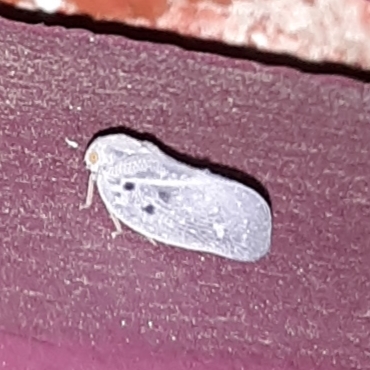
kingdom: Animalia
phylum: Arthropoda
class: Insecta
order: Hemiptera
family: Flatidae
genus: Metcalfa
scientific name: Metcalfa pruinosa
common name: Citrus flatid planthopper
